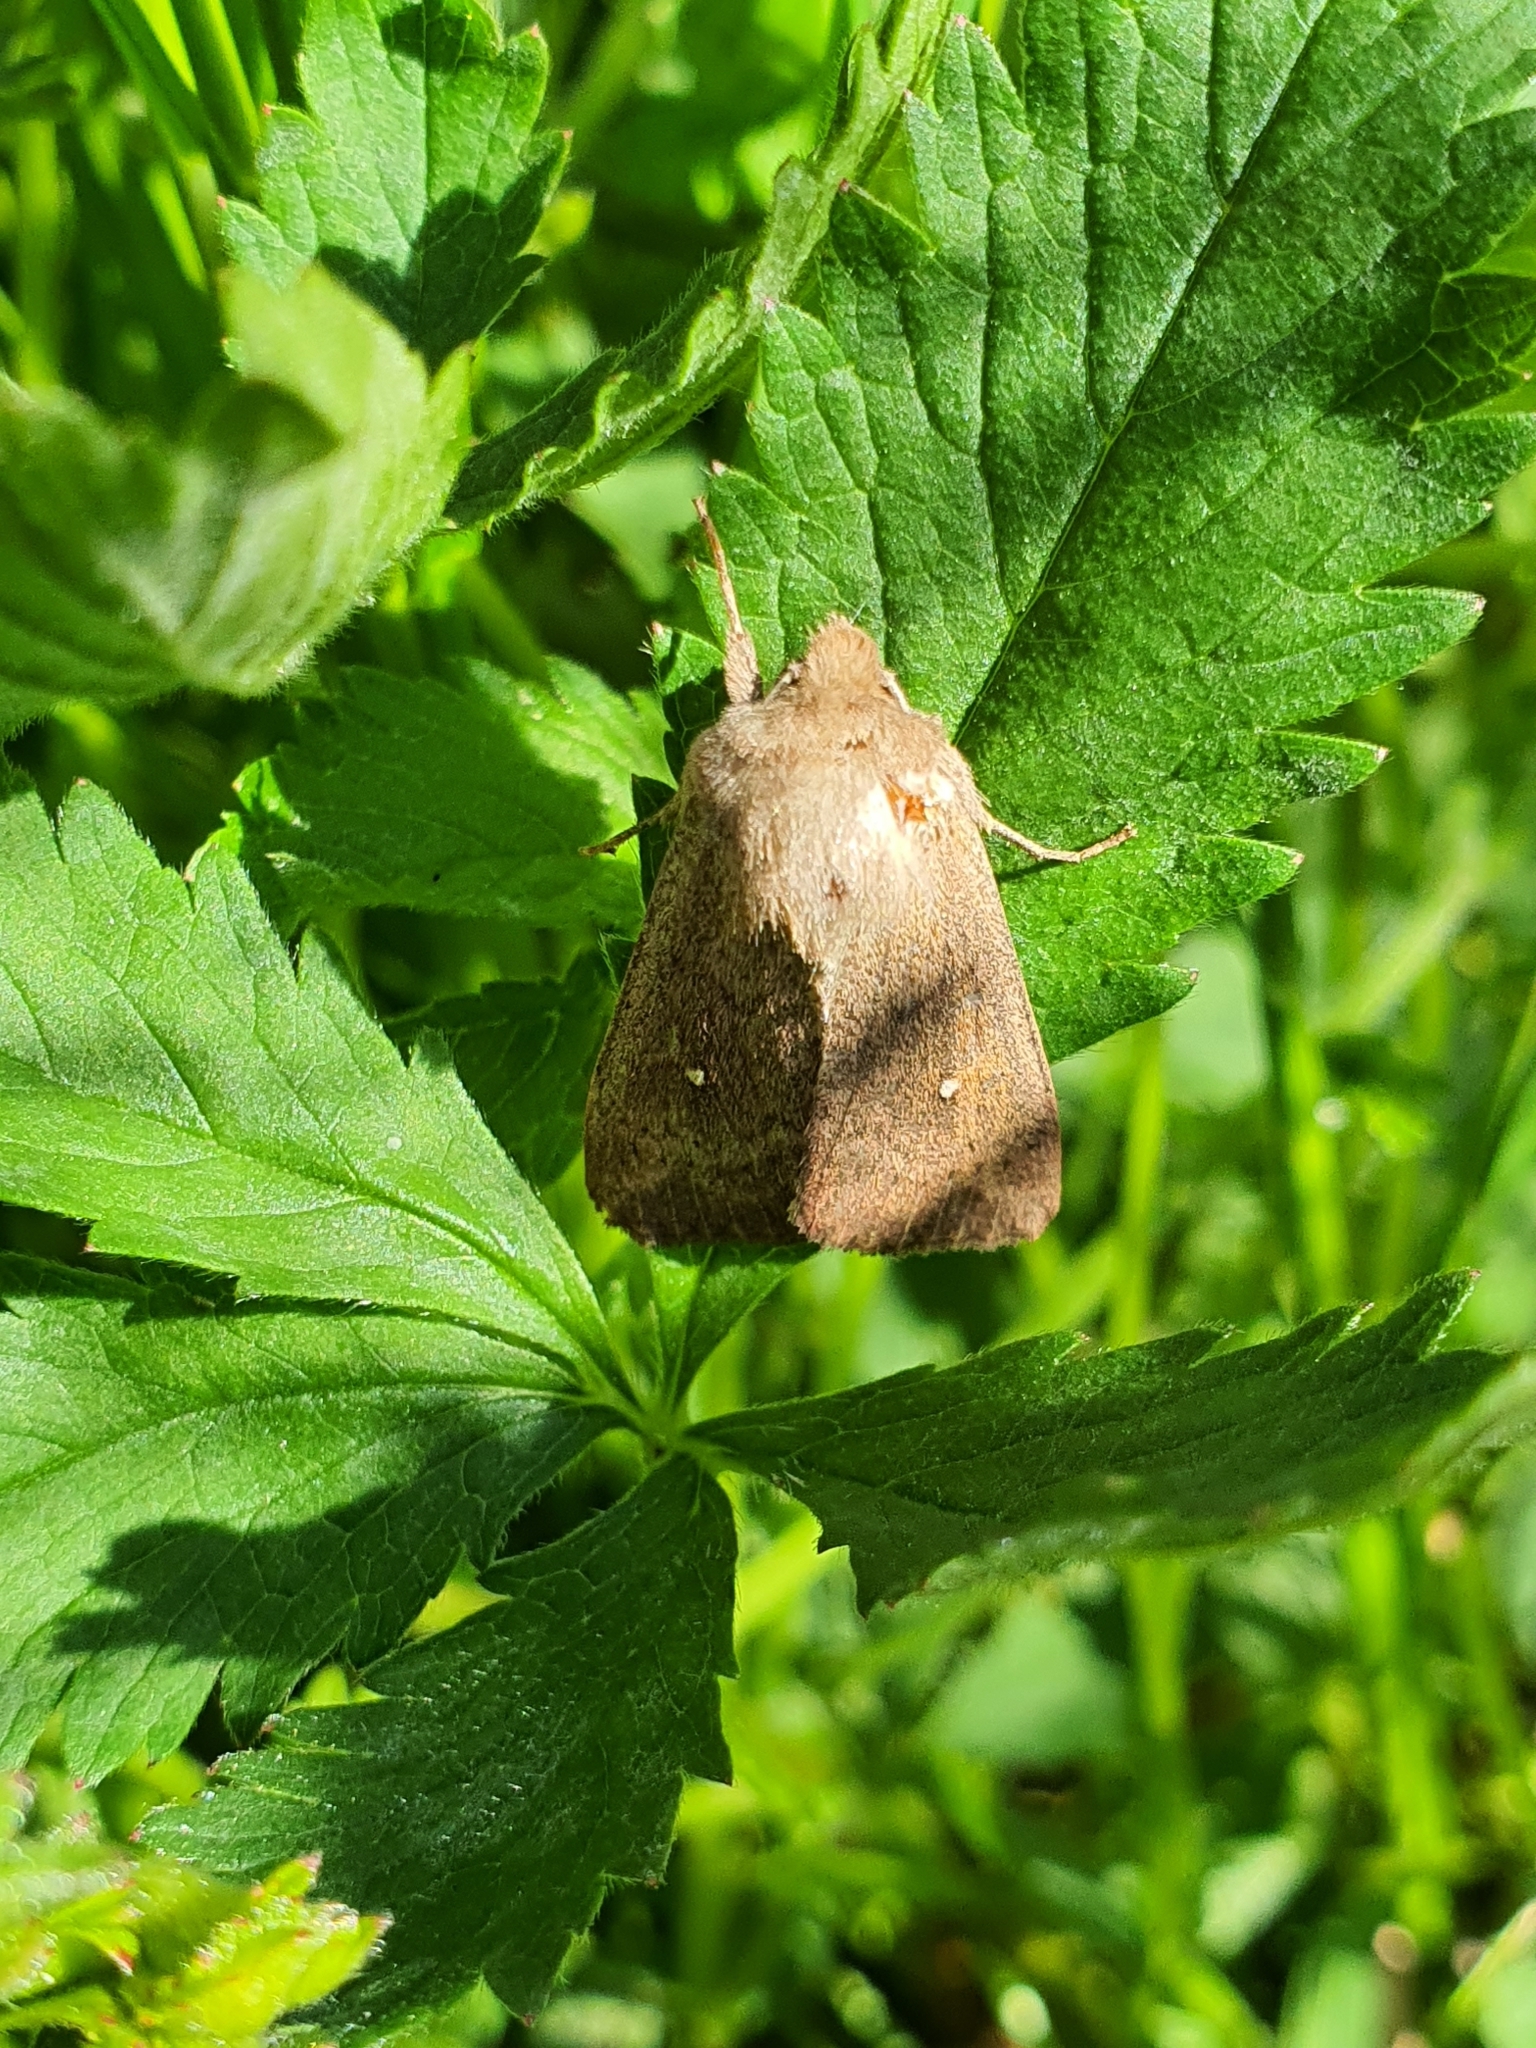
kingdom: Animalia
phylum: Arthropoda
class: Insecta
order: Lepidoptera
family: Noctuidae
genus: Mythimna
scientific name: Mythimna albipuncta
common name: White-point
